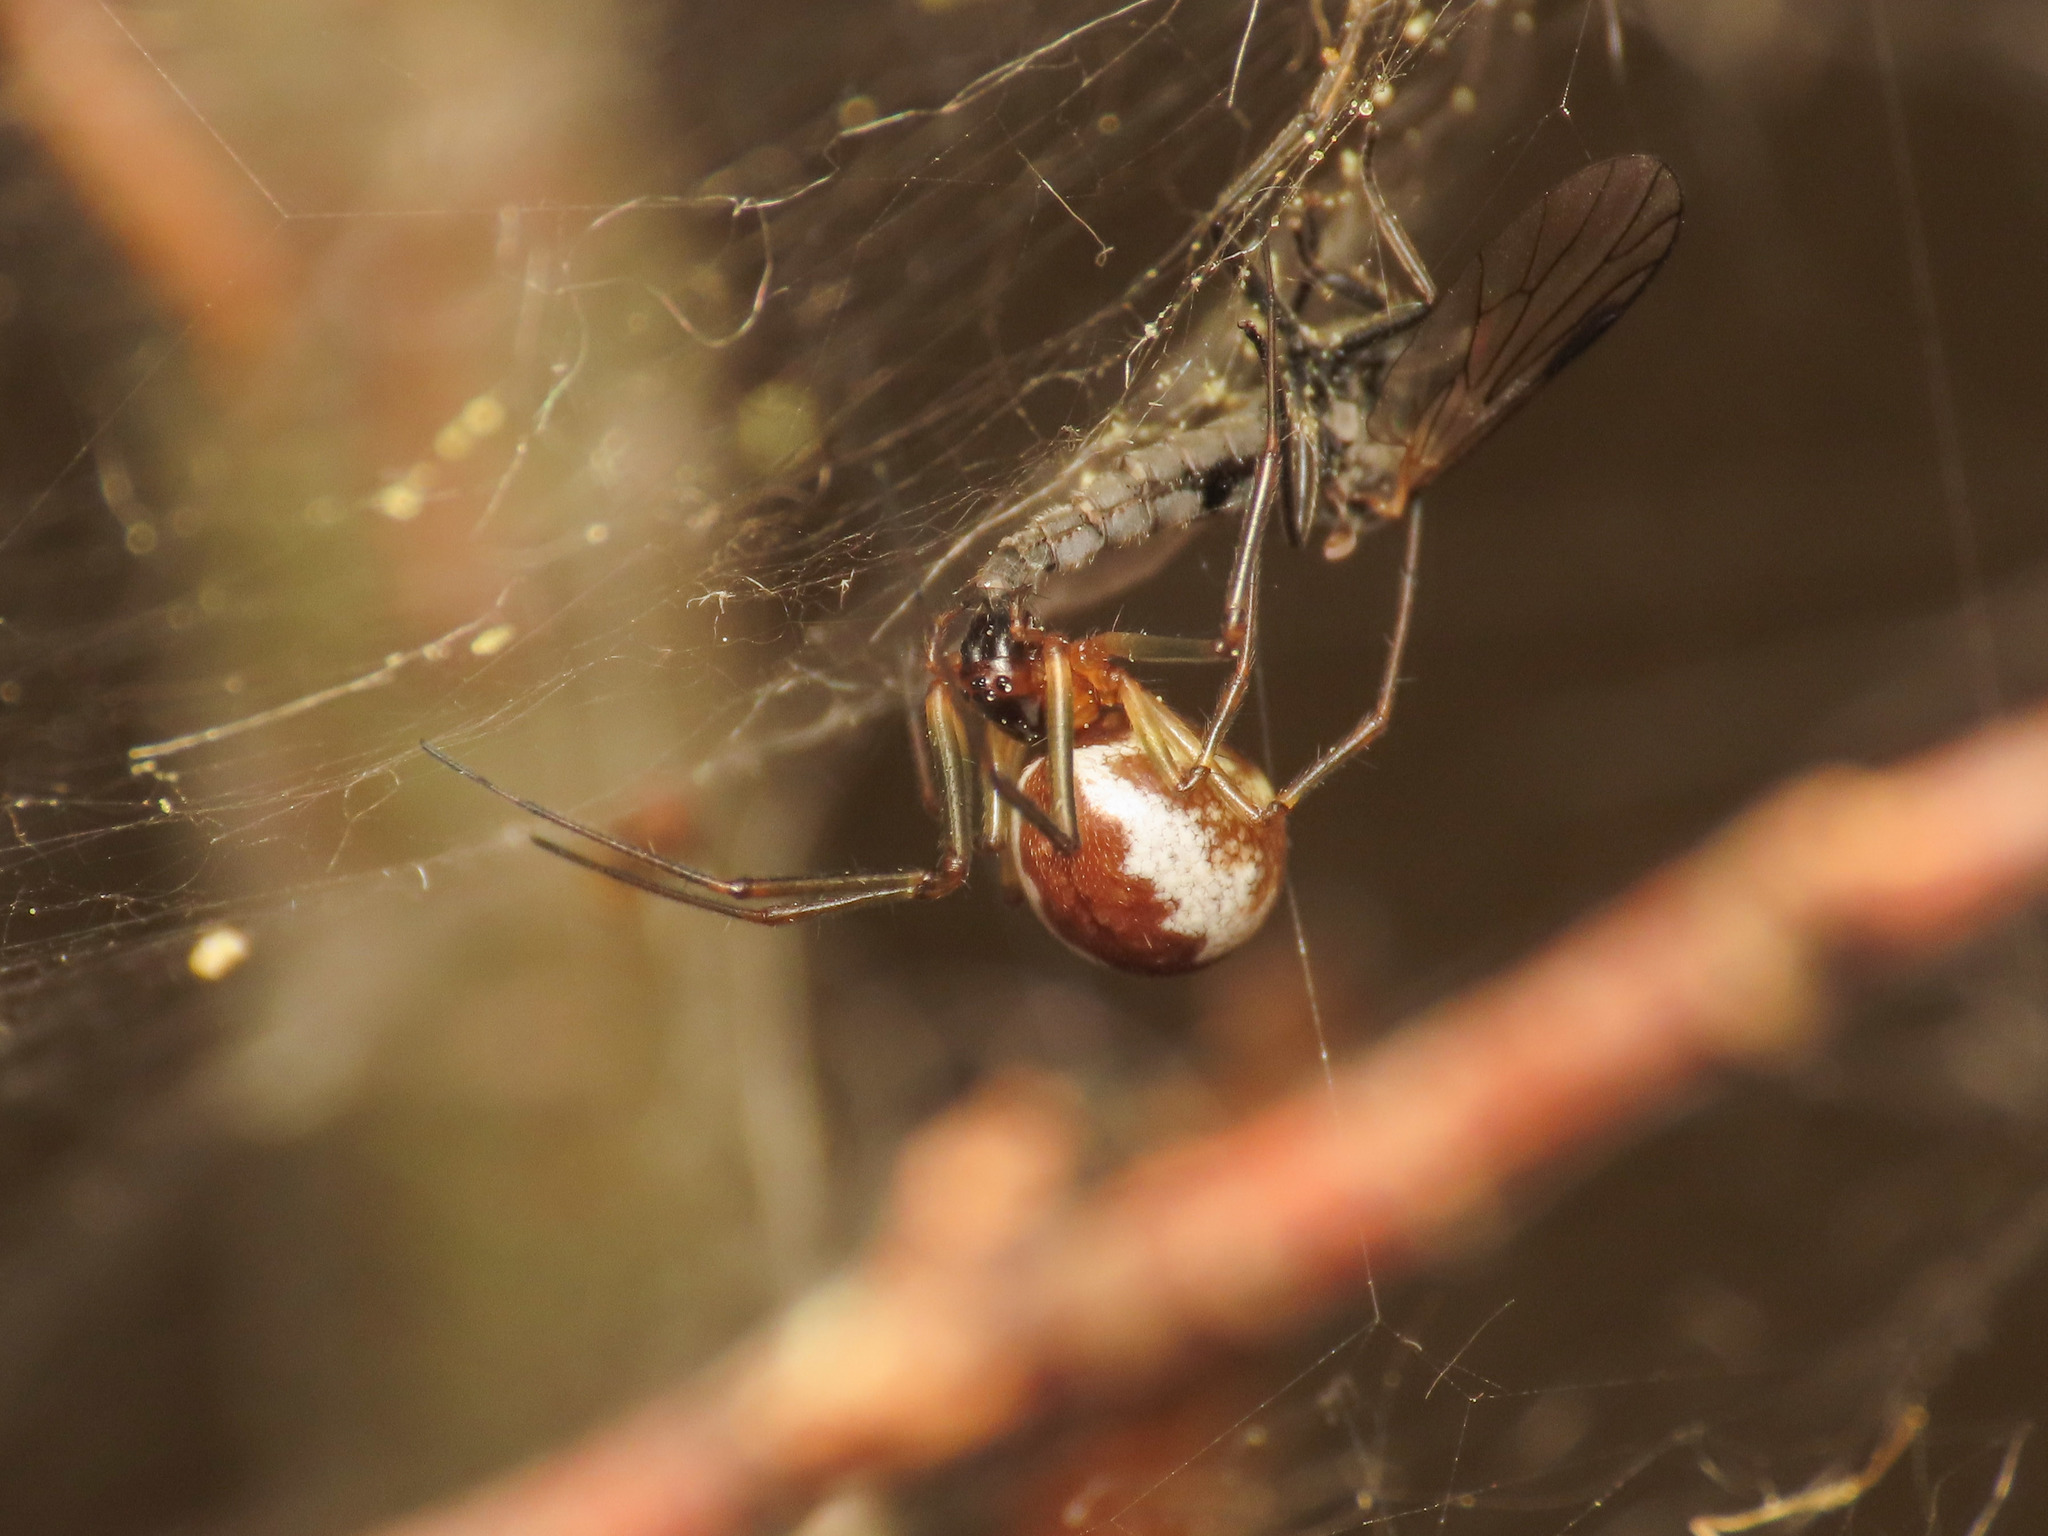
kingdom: Animalia
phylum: Arthropoda
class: Arachnida
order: Araneae
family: Linyphiidae
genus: Neriene
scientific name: Neriene peltata
